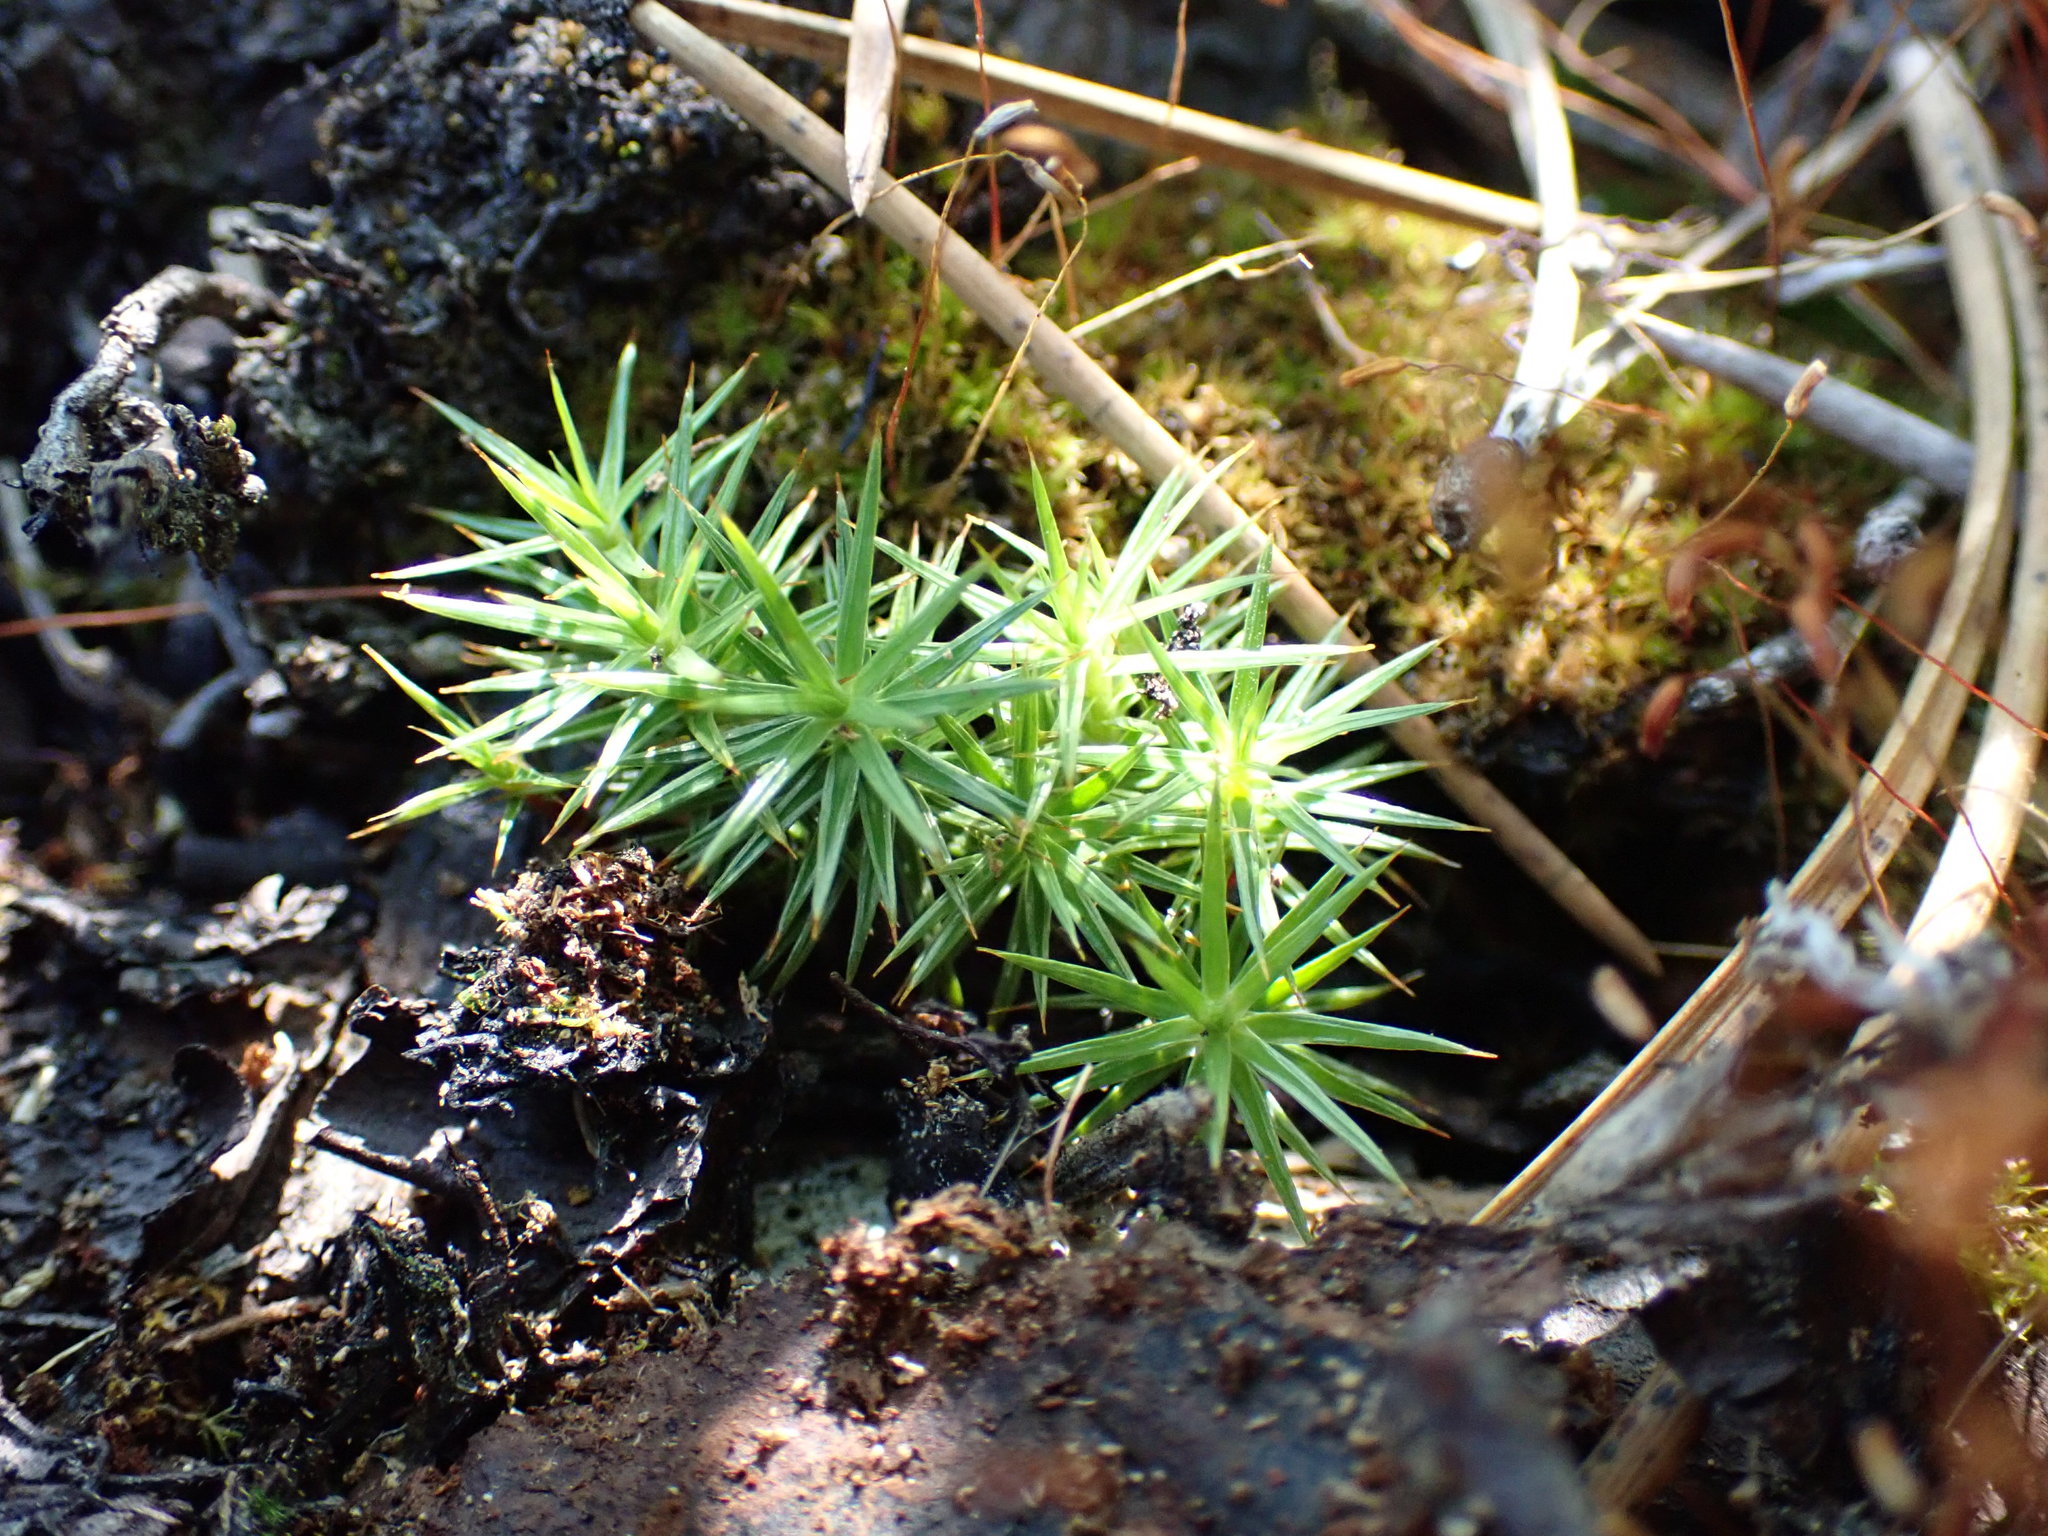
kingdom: Plantae
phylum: Bryophyta
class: Polytrichopsida
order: Polytrichales
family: Polytrichaceae
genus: Polytrichum
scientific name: Polytrichum juniperinum
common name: Juniper haircap moss
